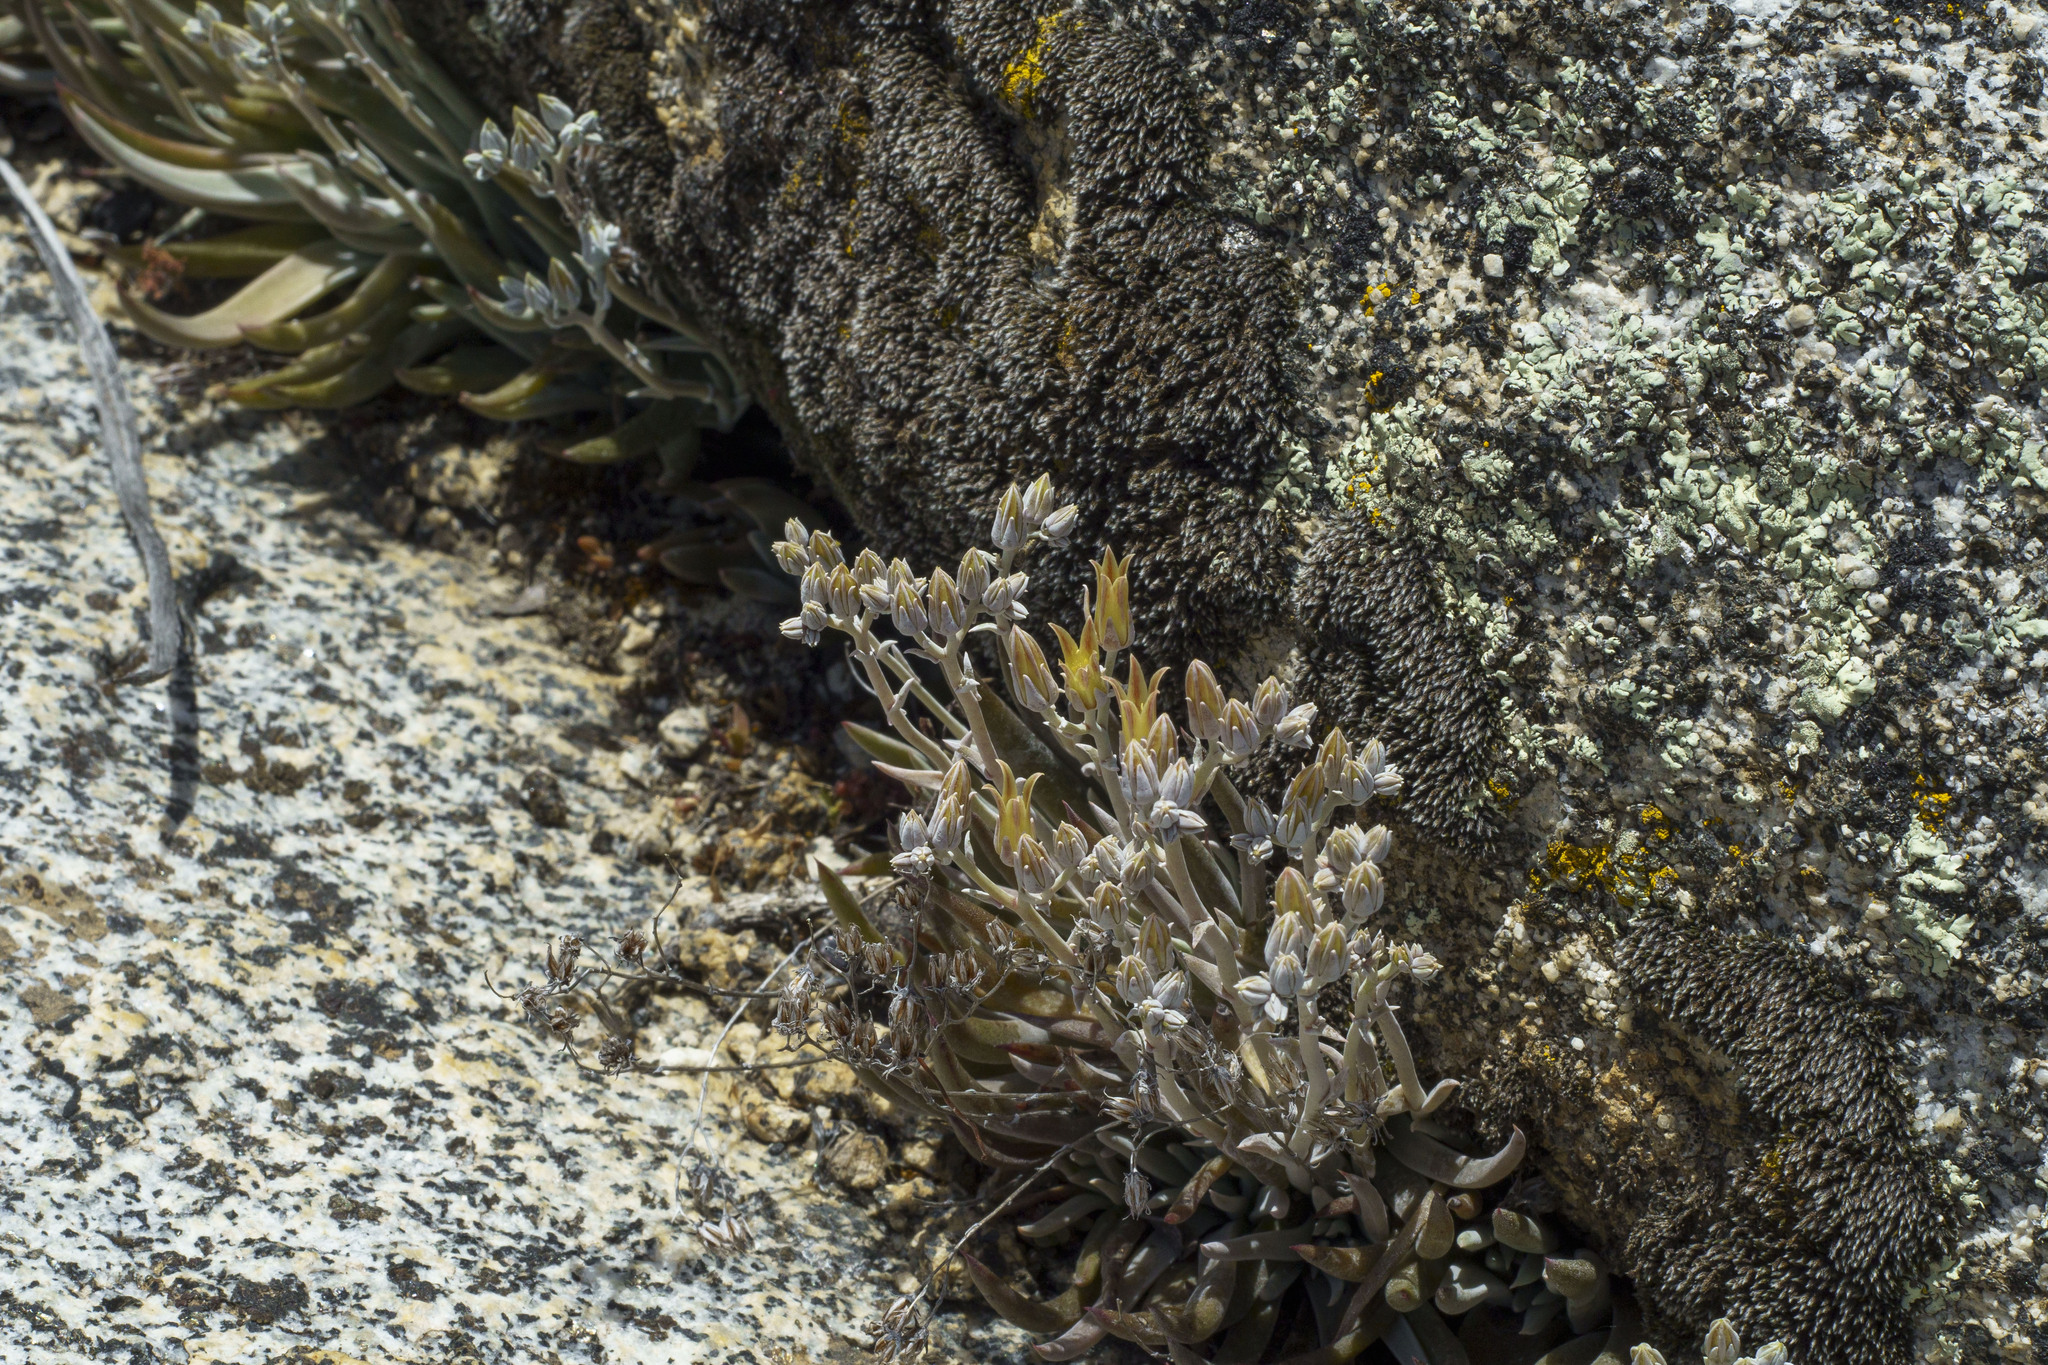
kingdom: Plantae
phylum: Tracheophyta
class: Magnoliopsida
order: Saxifragales
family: Crassulaceae
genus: Dudleya
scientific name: Dudleya abramsii
